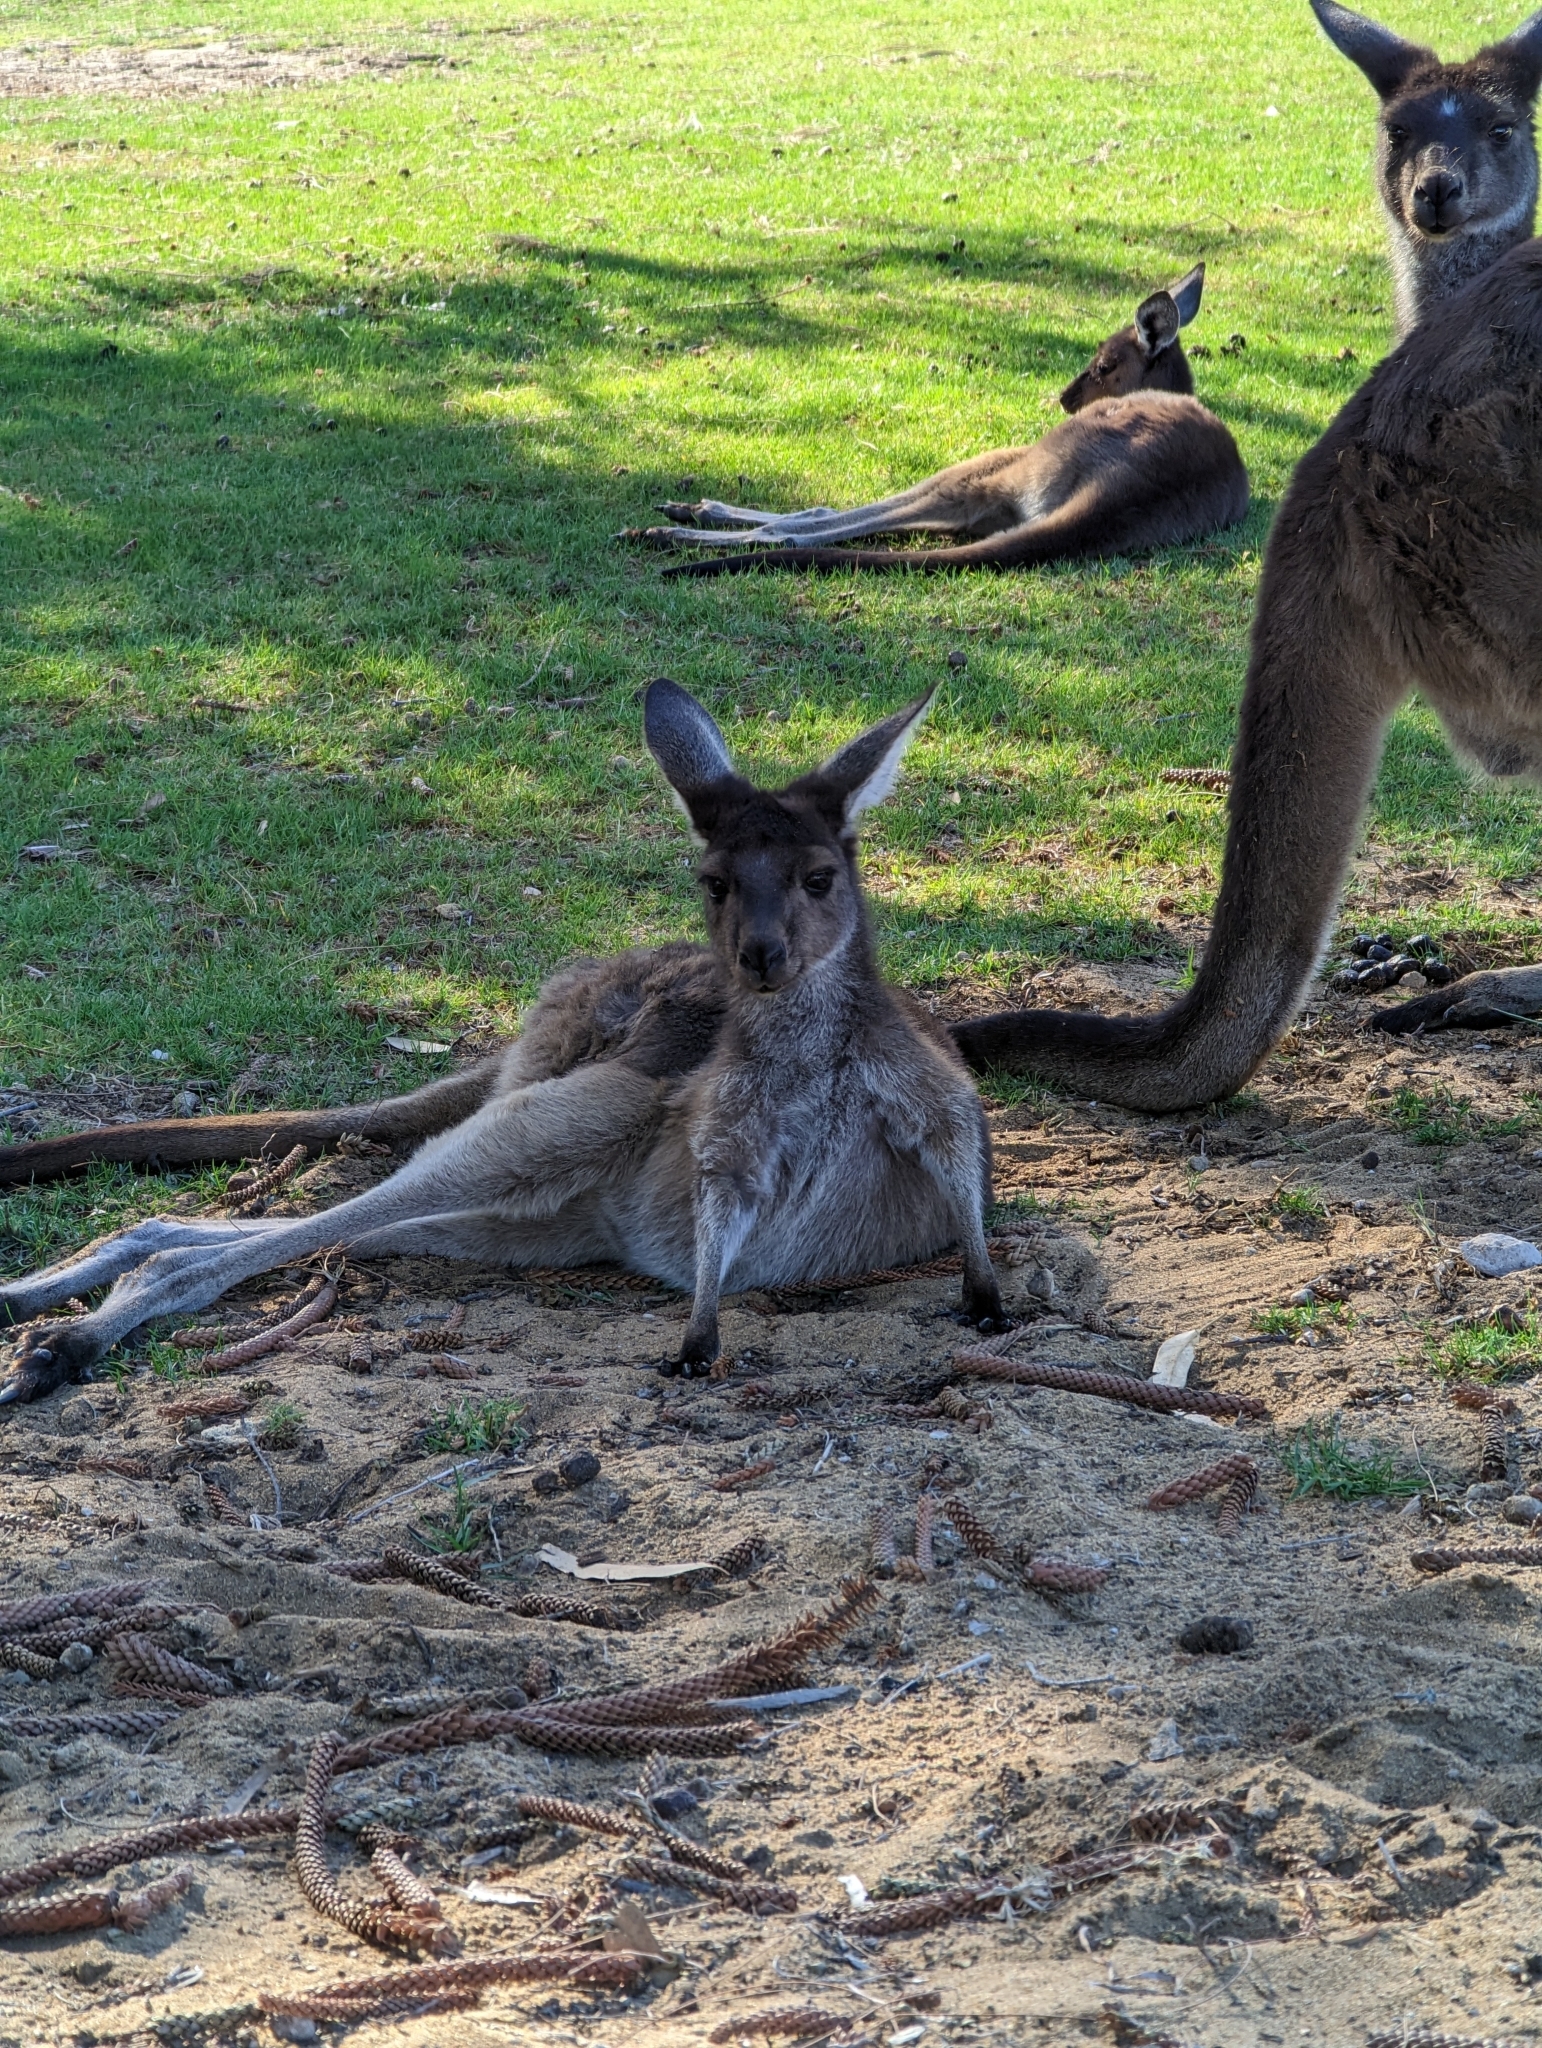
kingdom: Animalia
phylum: Chordata
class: Mammalia
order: Diprotodontia
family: Macropodidae
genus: Macropus
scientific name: Macropus fuliginosus
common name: Western grey kangaroo
